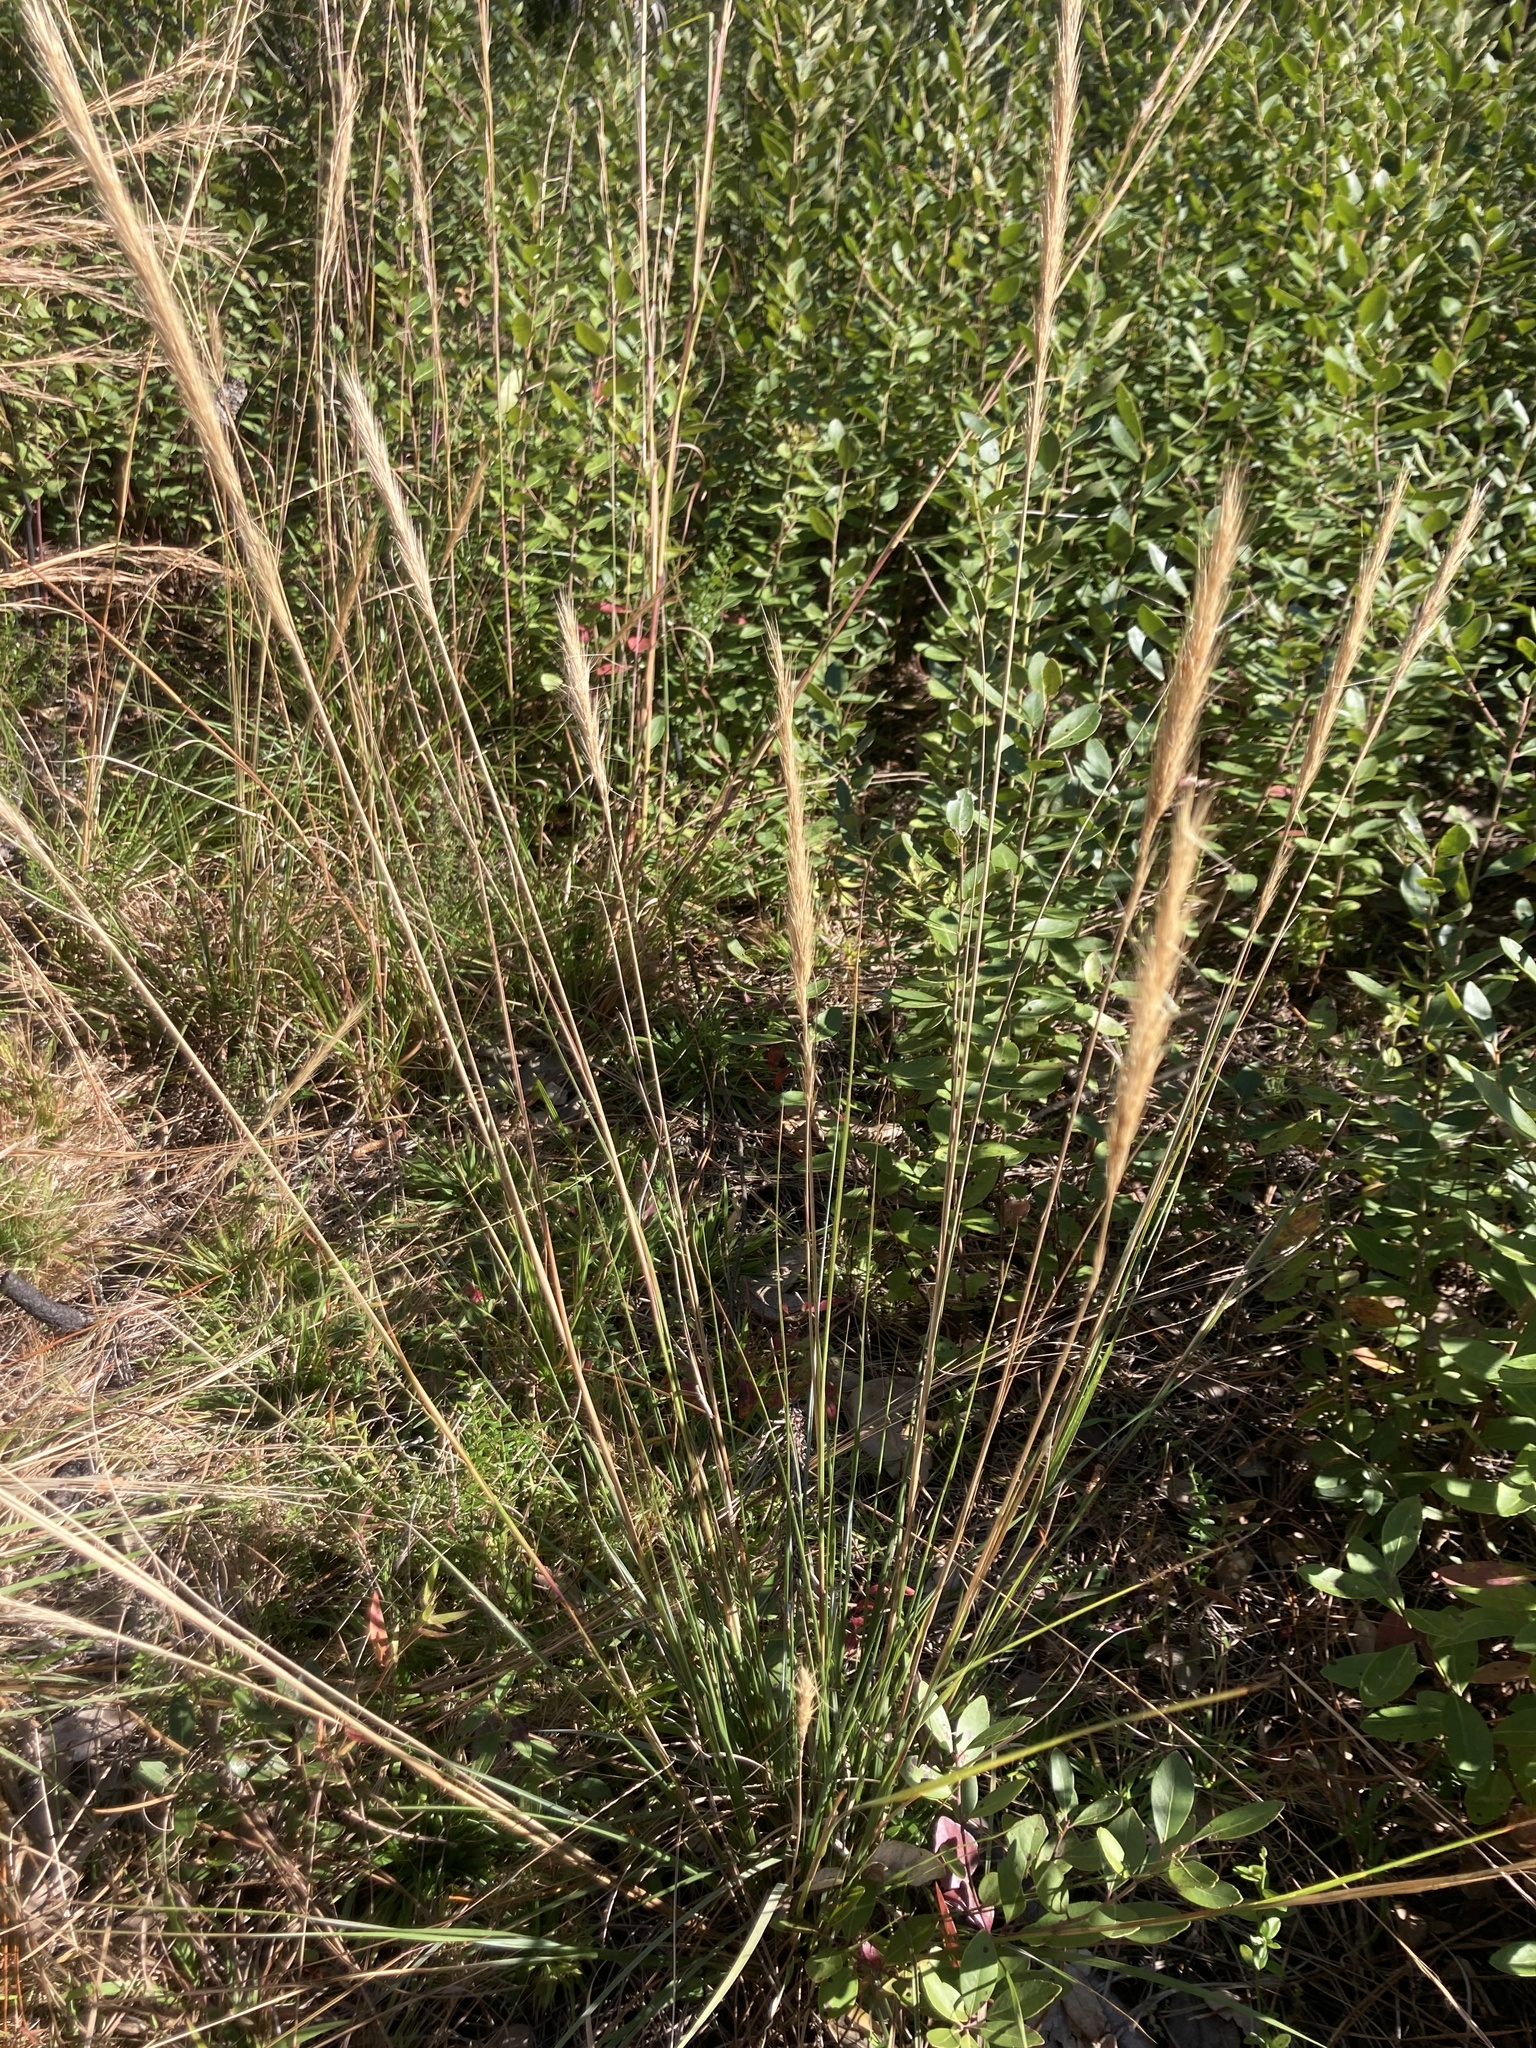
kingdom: Plantae
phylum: Tracheophyta
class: Liliopsida
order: Poales
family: Poaceae
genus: Aristida
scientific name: Aristida spiciformis
